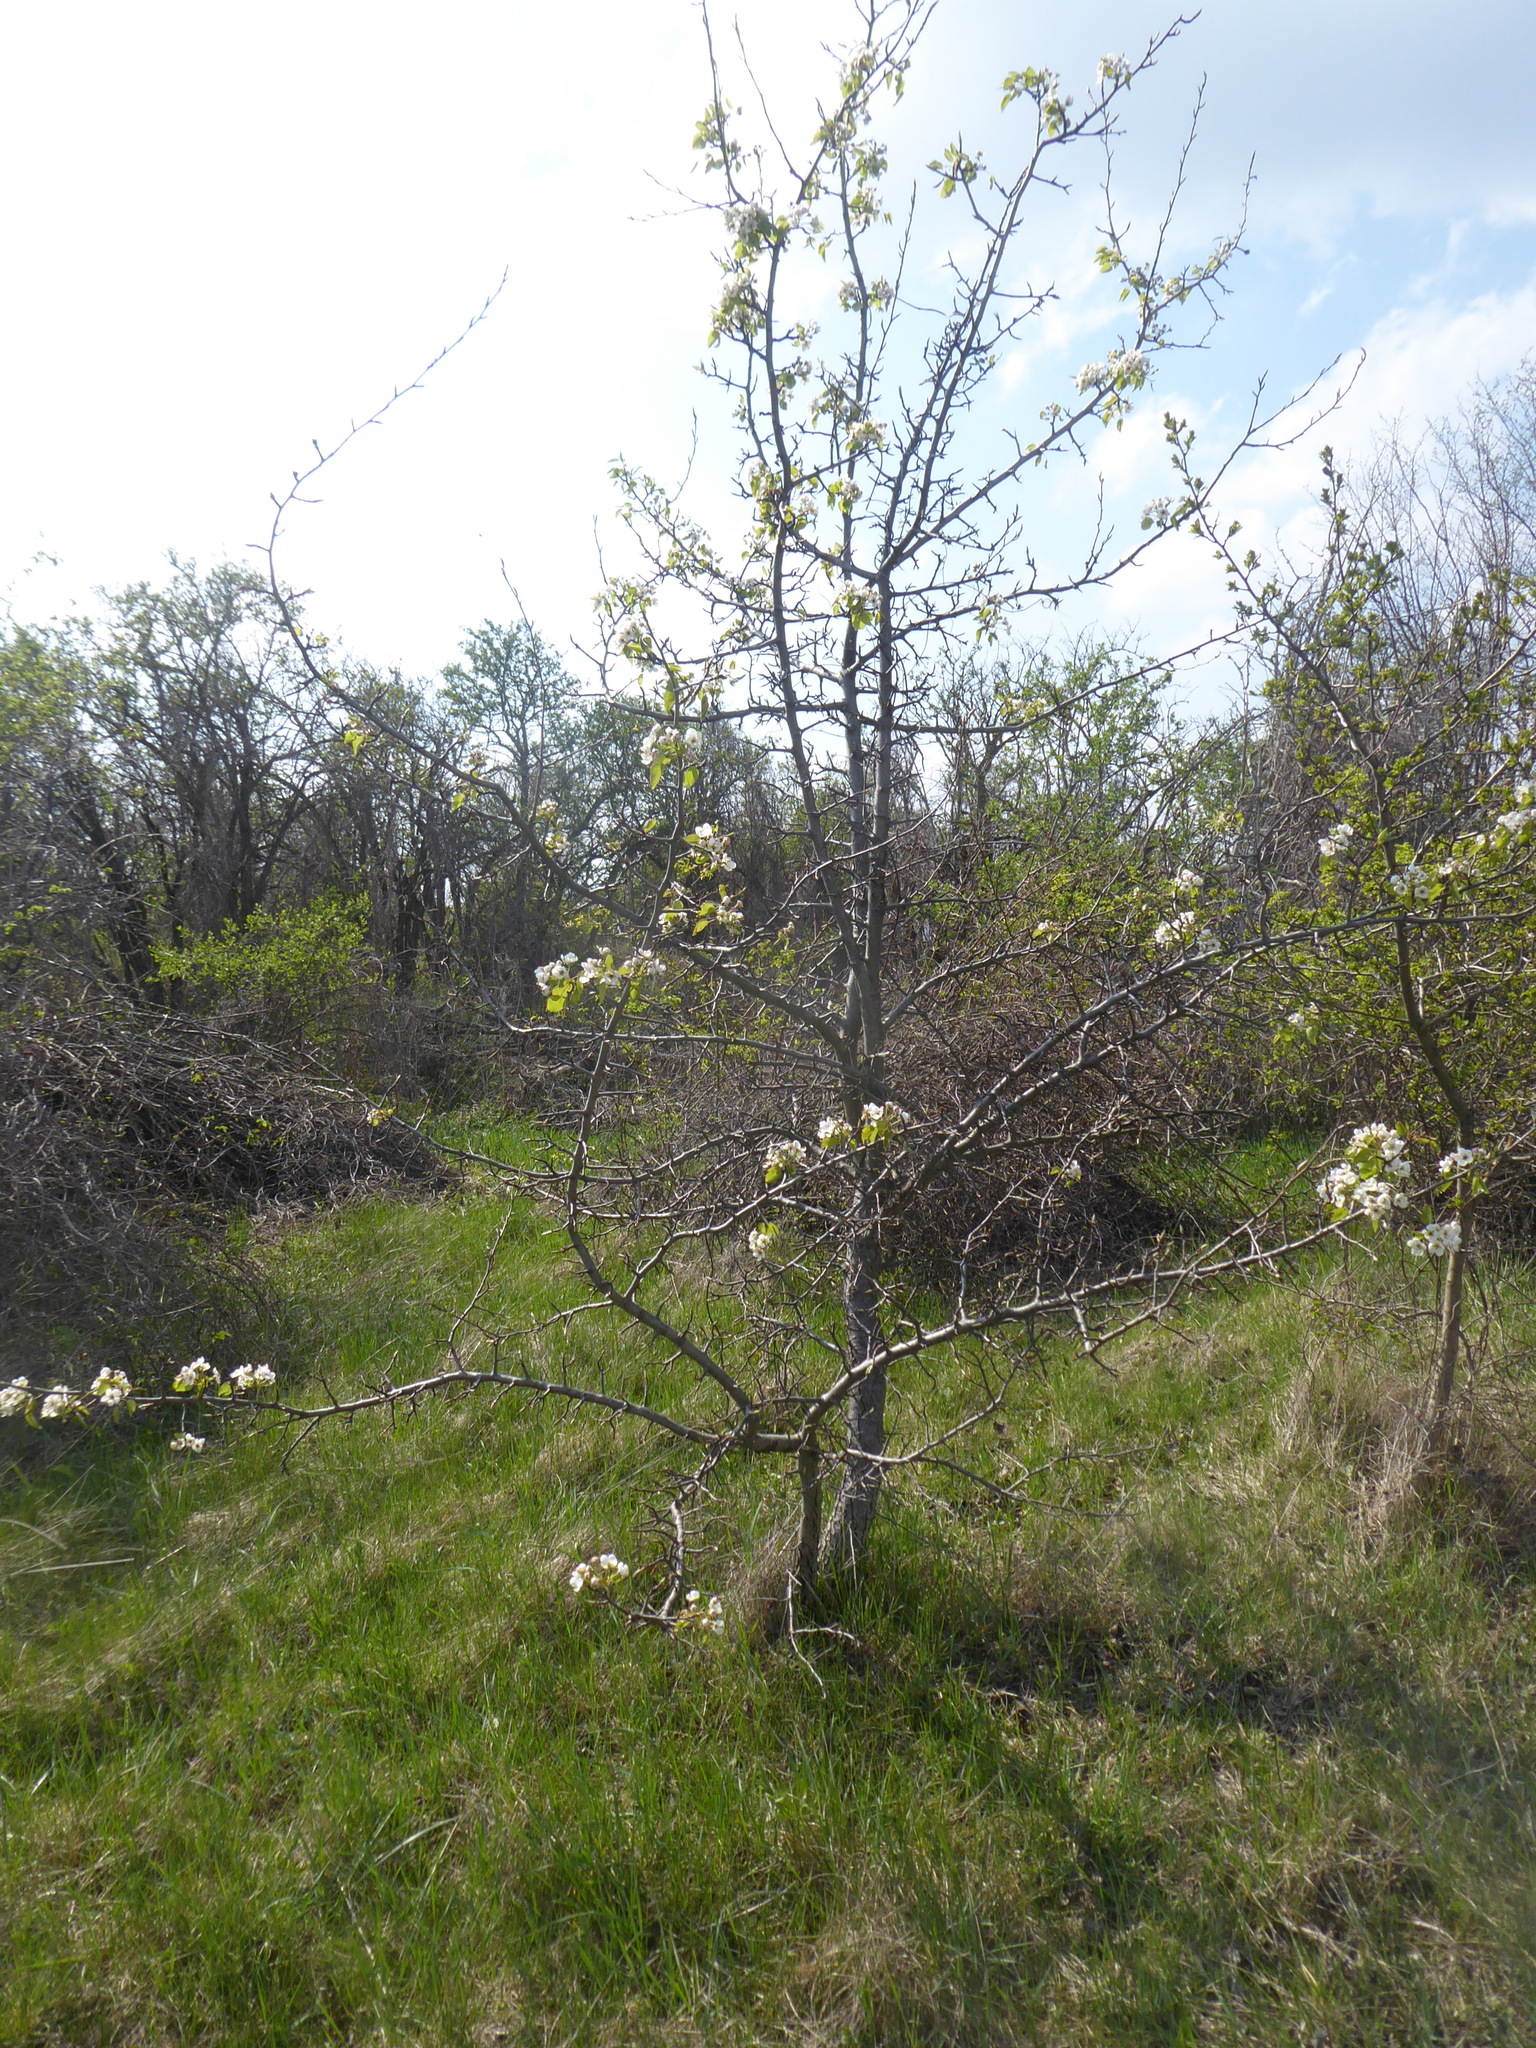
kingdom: Plantae
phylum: Tracheophyta
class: Magnoliopsida
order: Rosales
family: Rosaceae
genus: Prunus
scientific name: Prunus avium
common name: Sweet cherry
